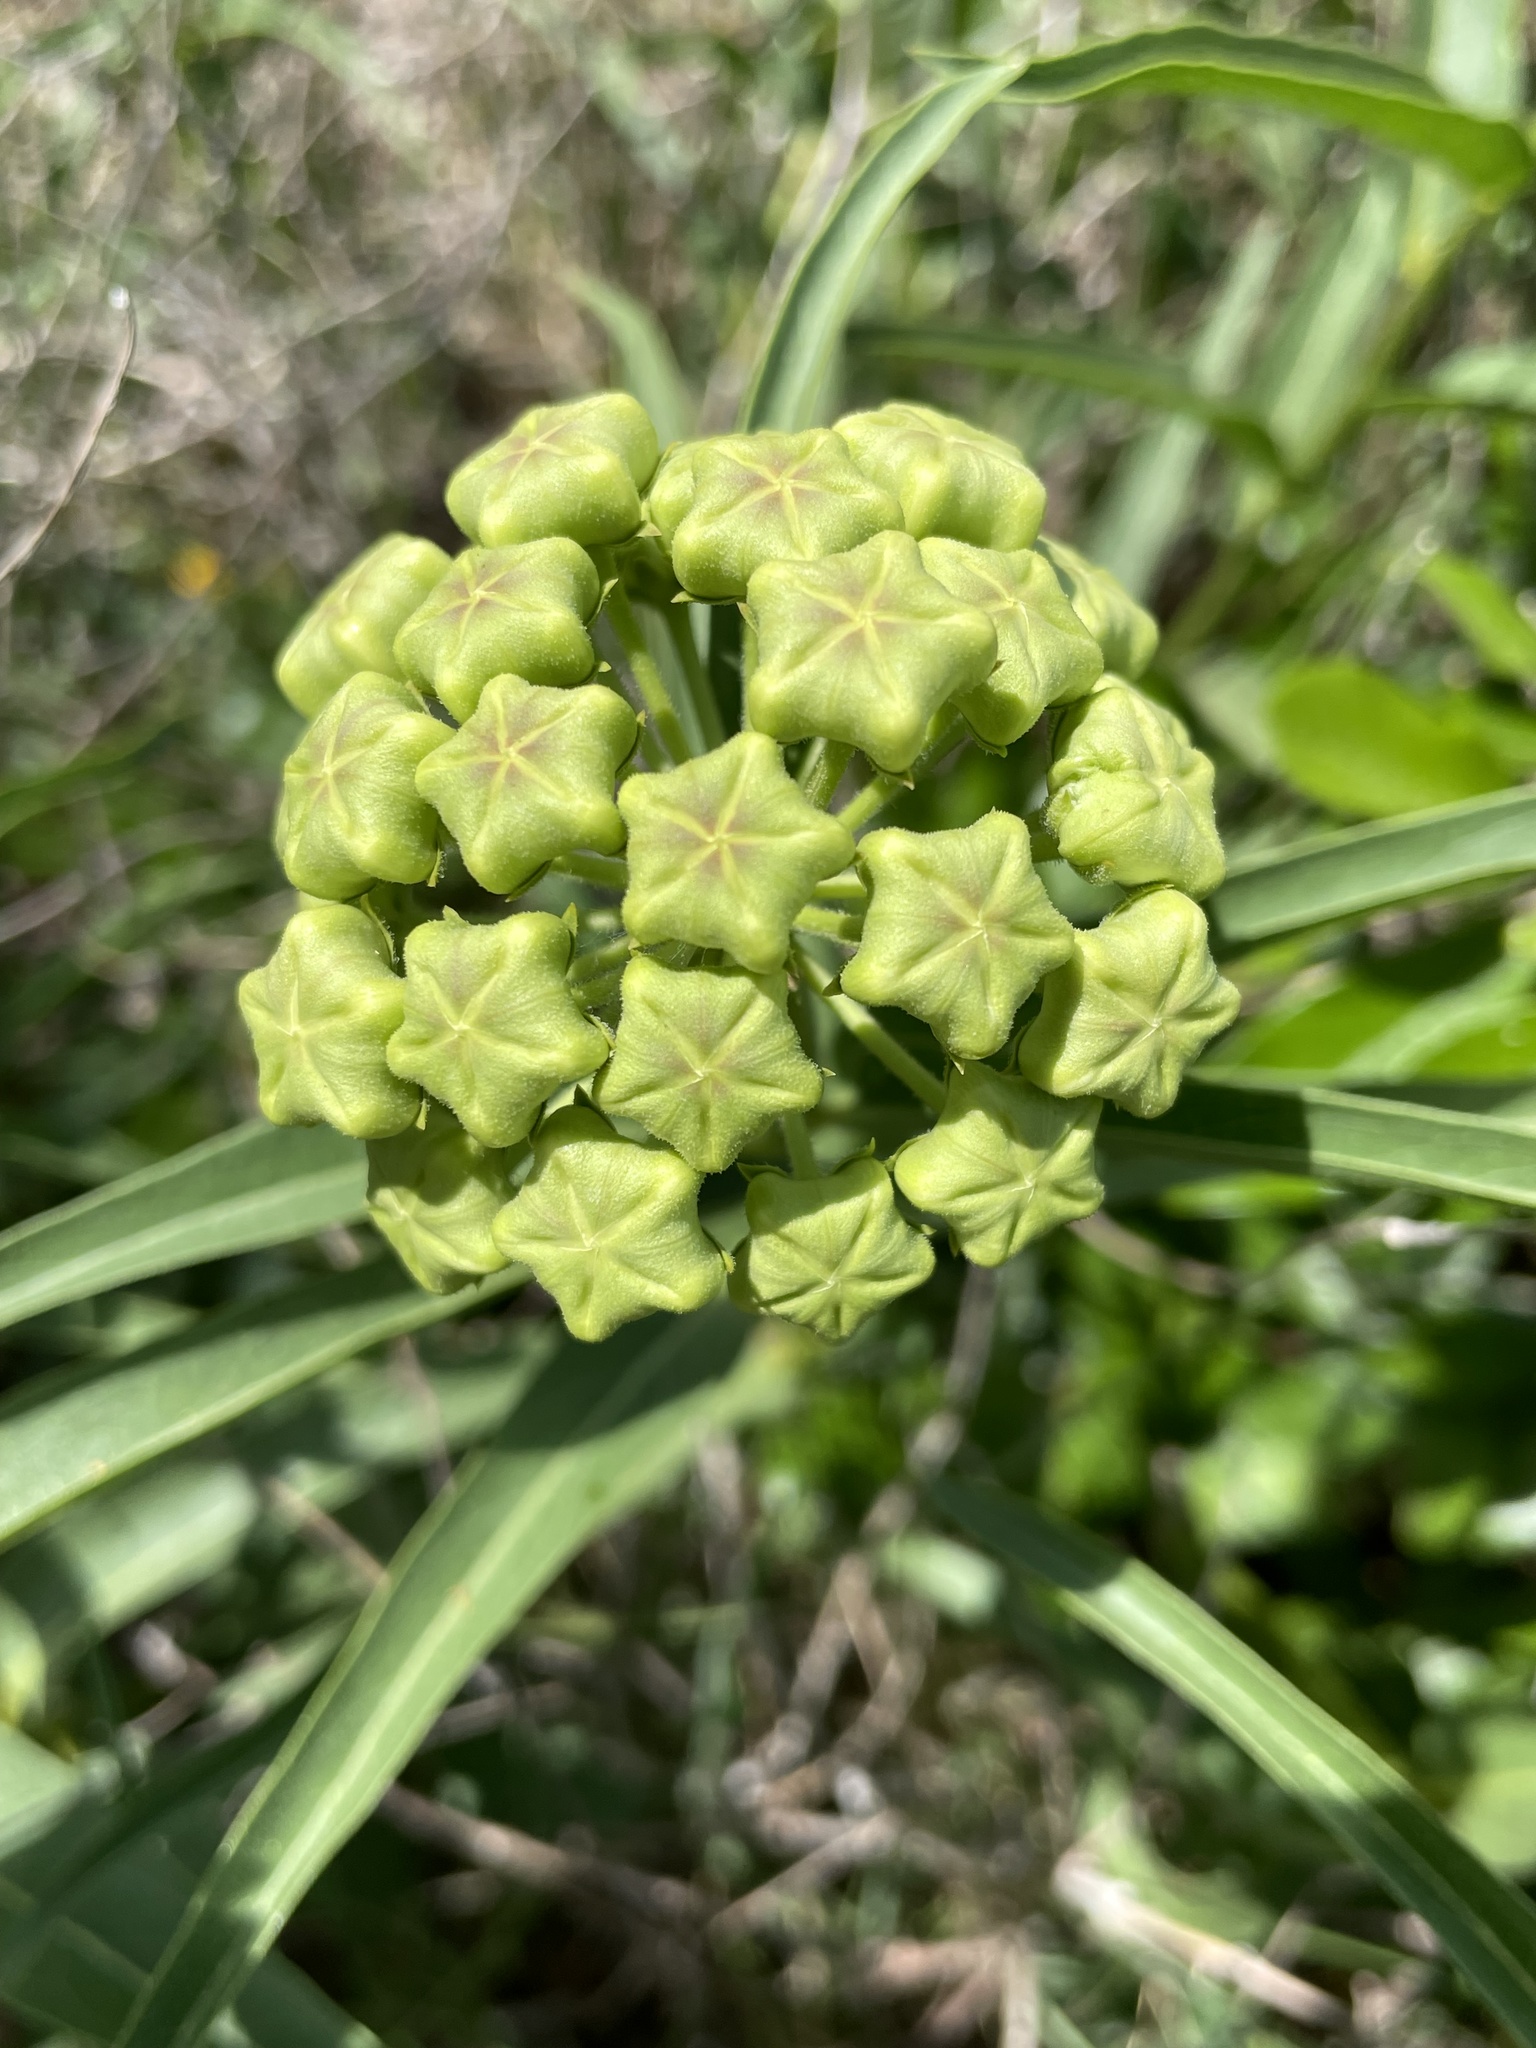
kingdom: Plantae
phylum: Tracheophyta
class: Magnoliopsida
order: Gentianales
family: Apocynaceae
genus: Asclepias
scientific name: Asclepias asperula
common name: Antelope horns
